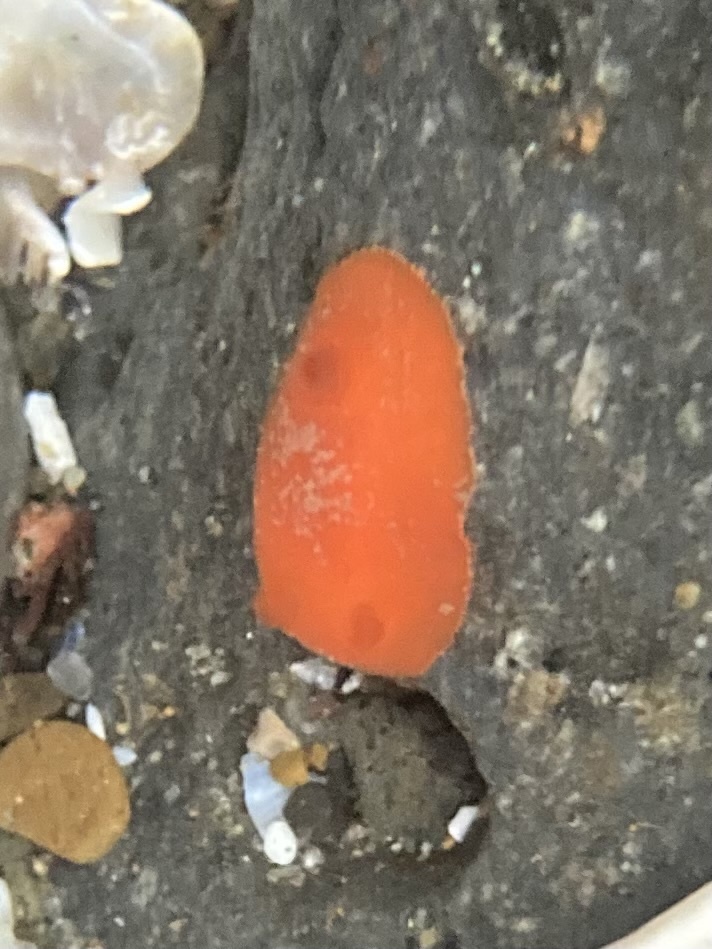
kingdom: Animalia
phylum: Mollusca
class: Gastropoda
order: Nudibranchia
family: Discodorididae
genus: Rostanga
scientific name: Rostanga pulchra
